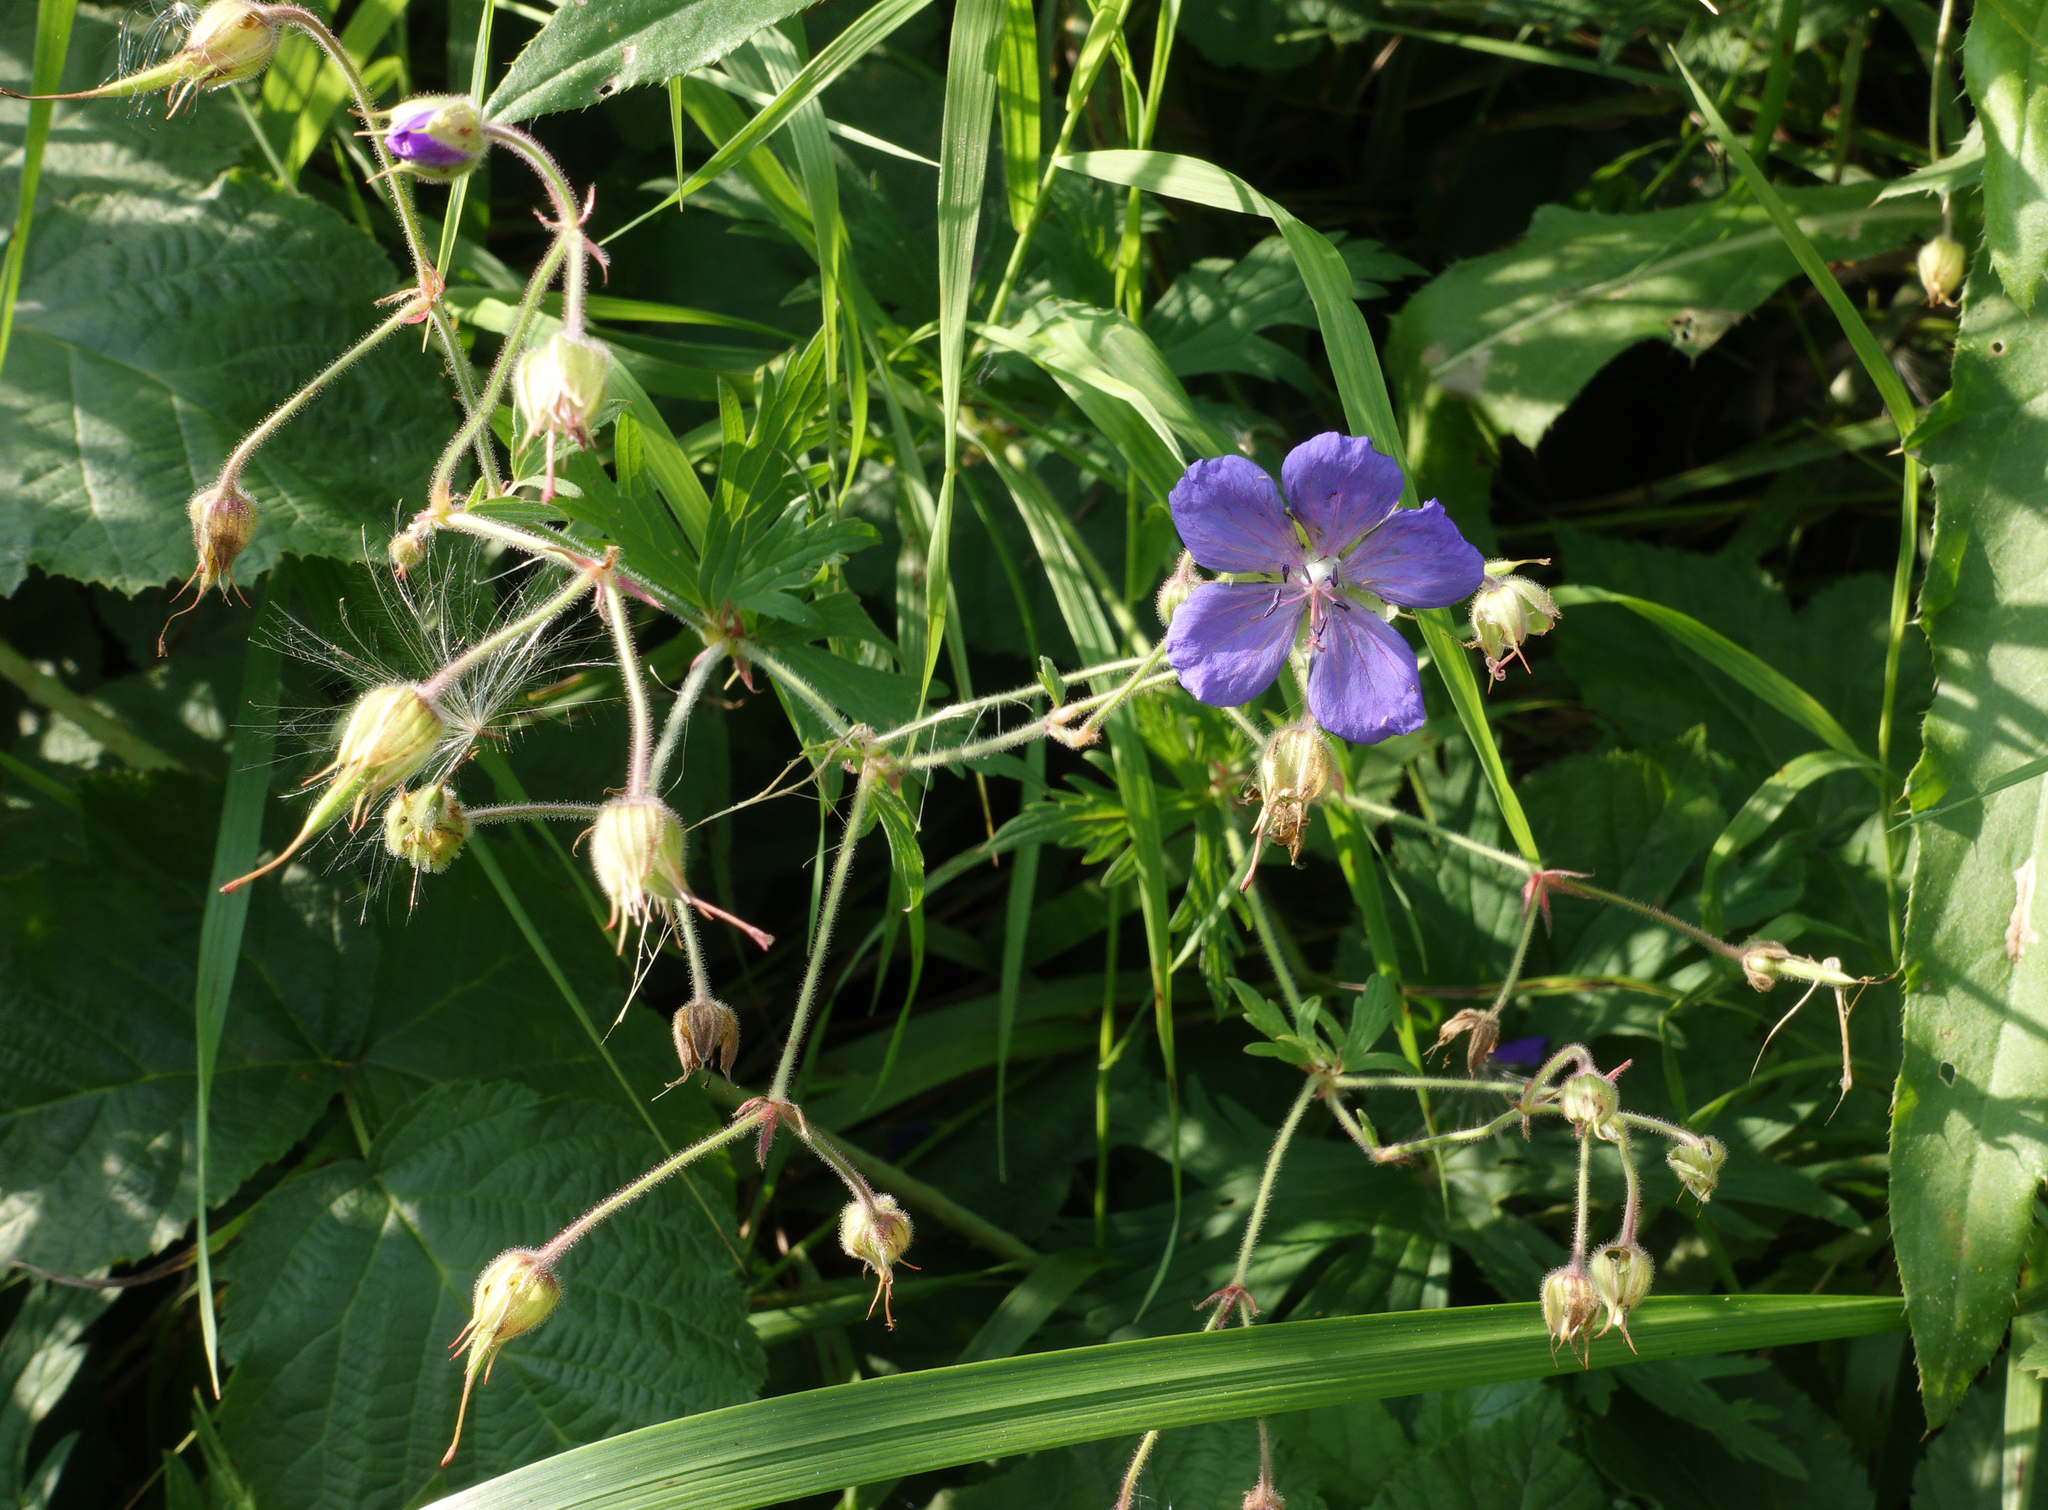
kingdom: Plantae
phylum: Tracheophyta
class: Magnoliopsida
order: Geraniales
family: Geraniaceae
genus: Geranium
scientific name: Geranium pratense
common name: Meadow crane's-bill
